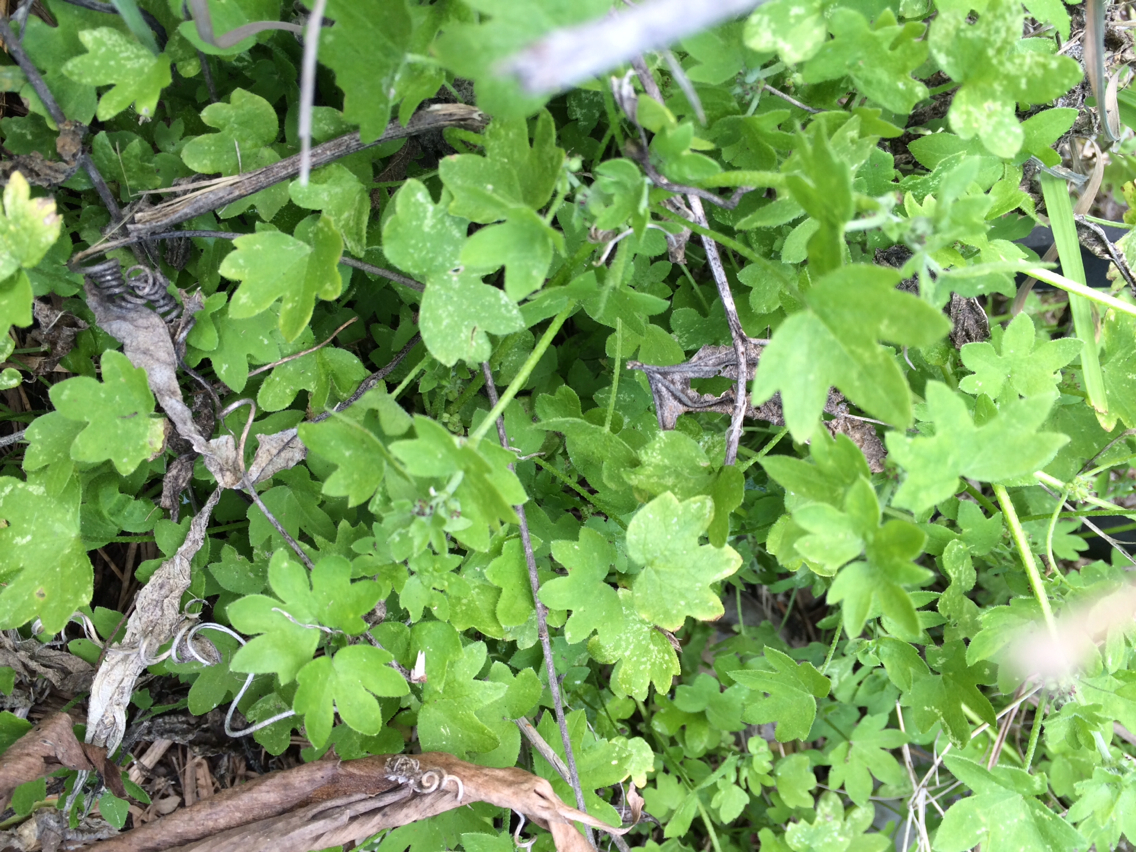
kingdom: Plantae
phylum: Tracheophyta
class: Magnoliopsida
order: Apiales
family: Apiaceae
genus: Bowlesia
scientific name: Bowlesia incana
